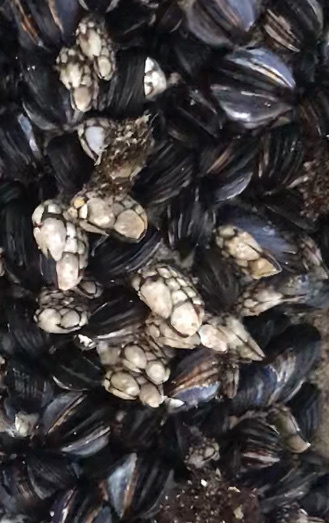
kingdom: Animalia
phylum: Arthropoda
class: Maxillopoda
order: Pedunculata
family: Pollicipedidae
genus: Pollicipes
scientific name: Pollicipes polymerus
